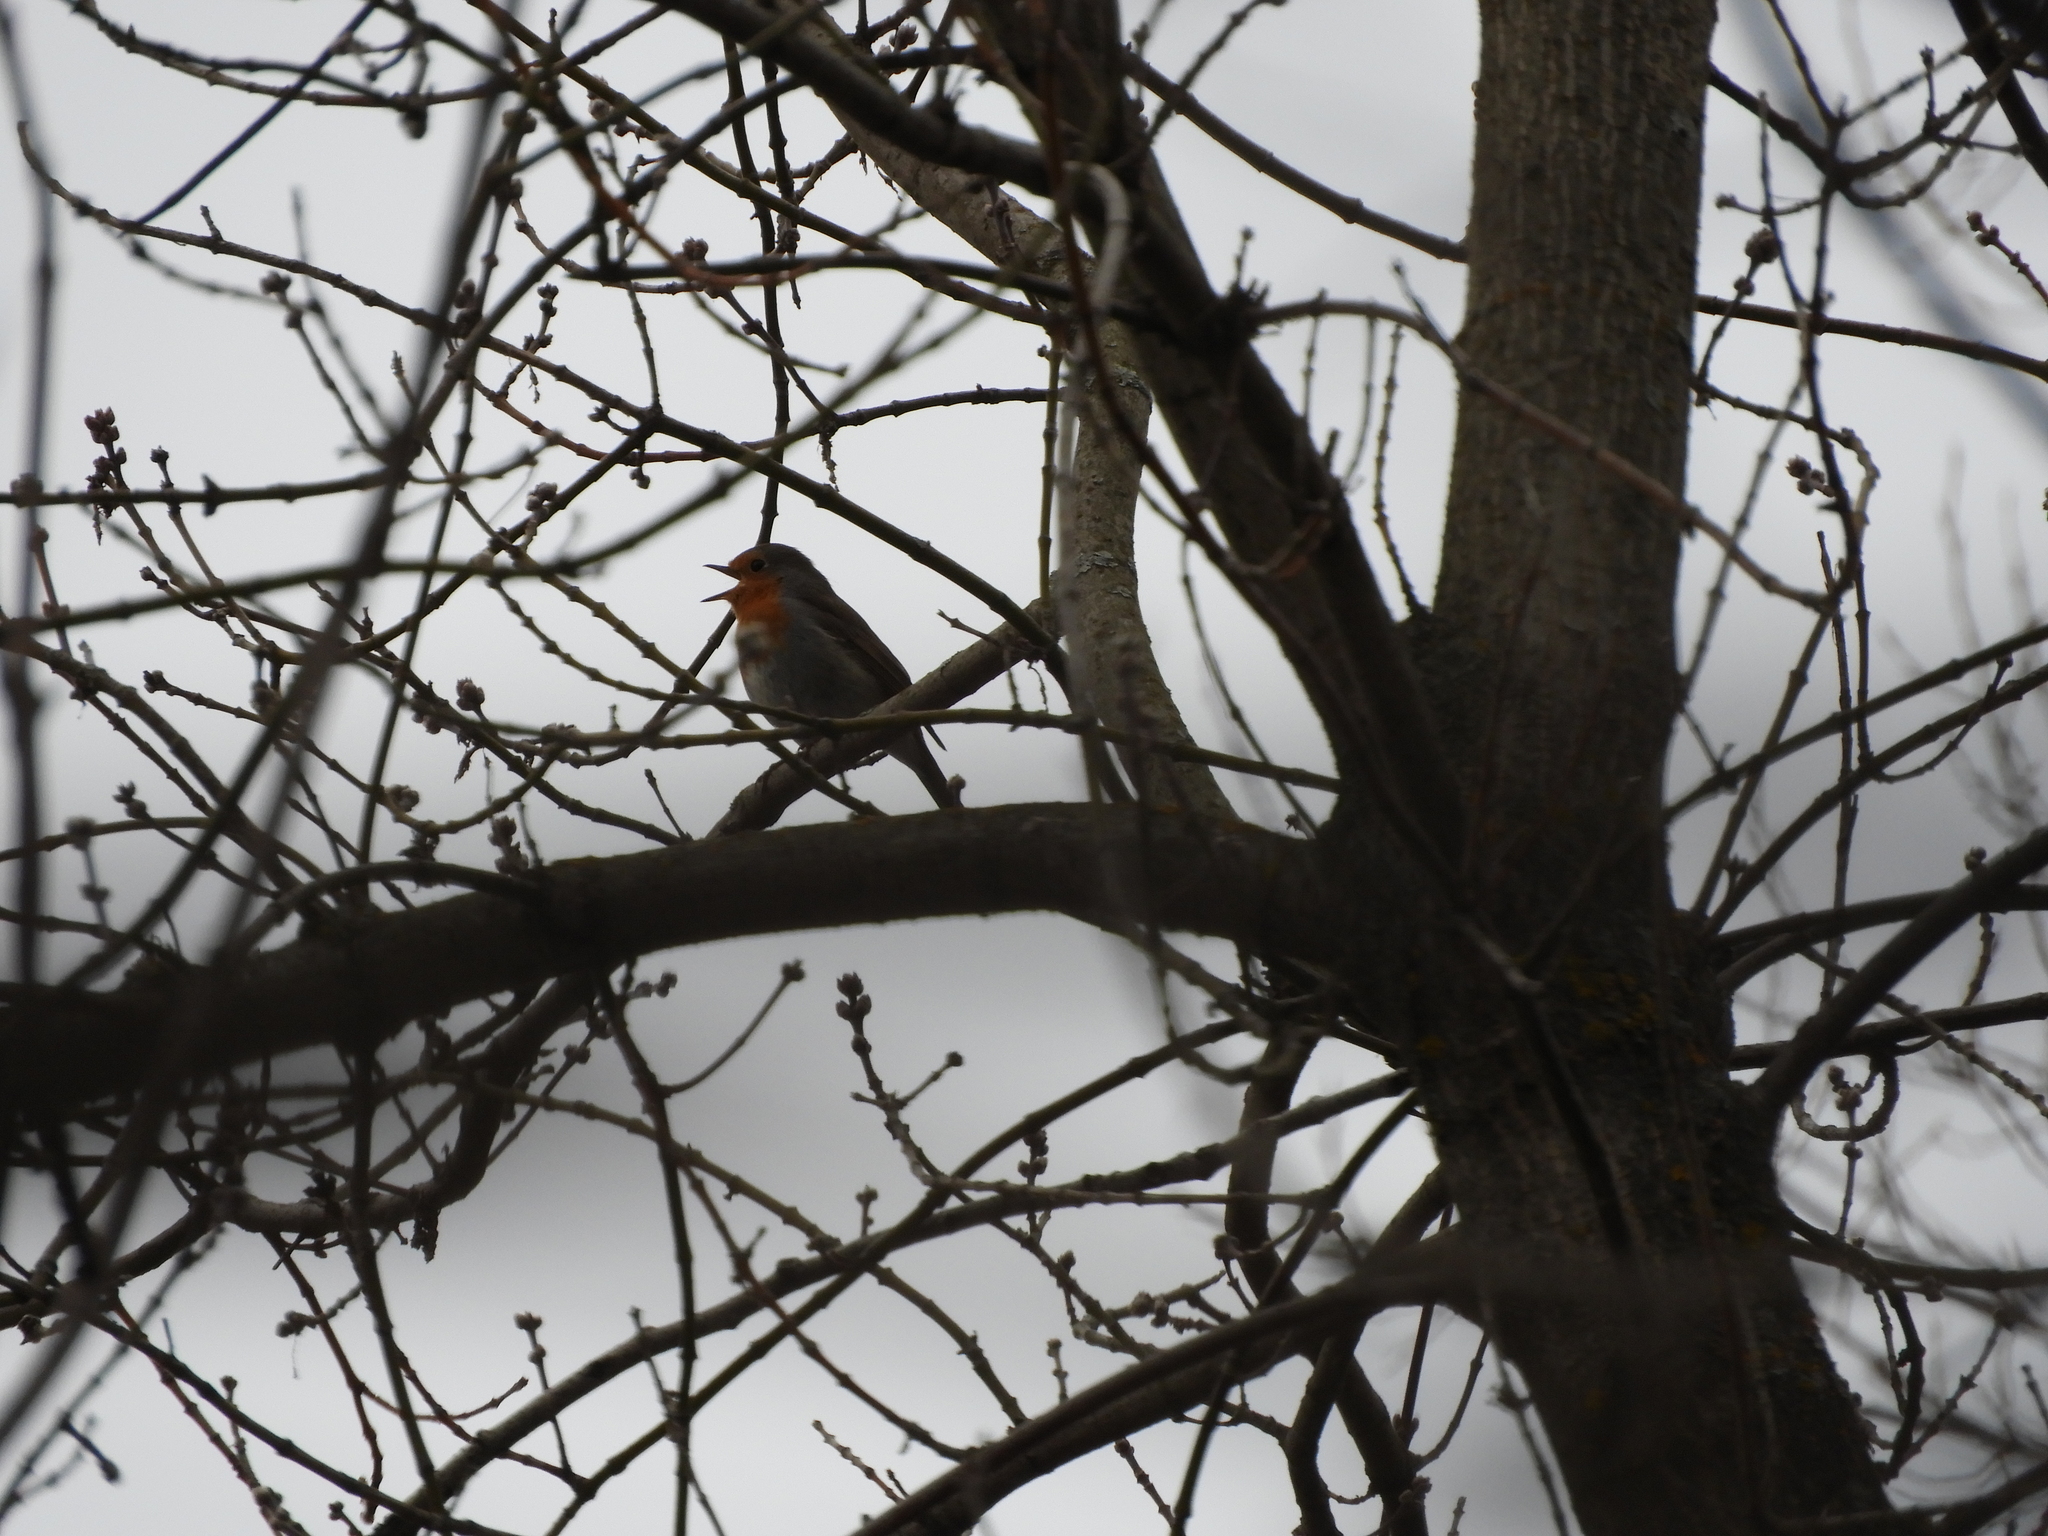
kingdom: Animalia
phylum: Chordata
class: Aves
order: Passeriformes
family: Muscicapidae
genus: Erithacus
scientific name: Erithacus rubecula
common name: European robin
